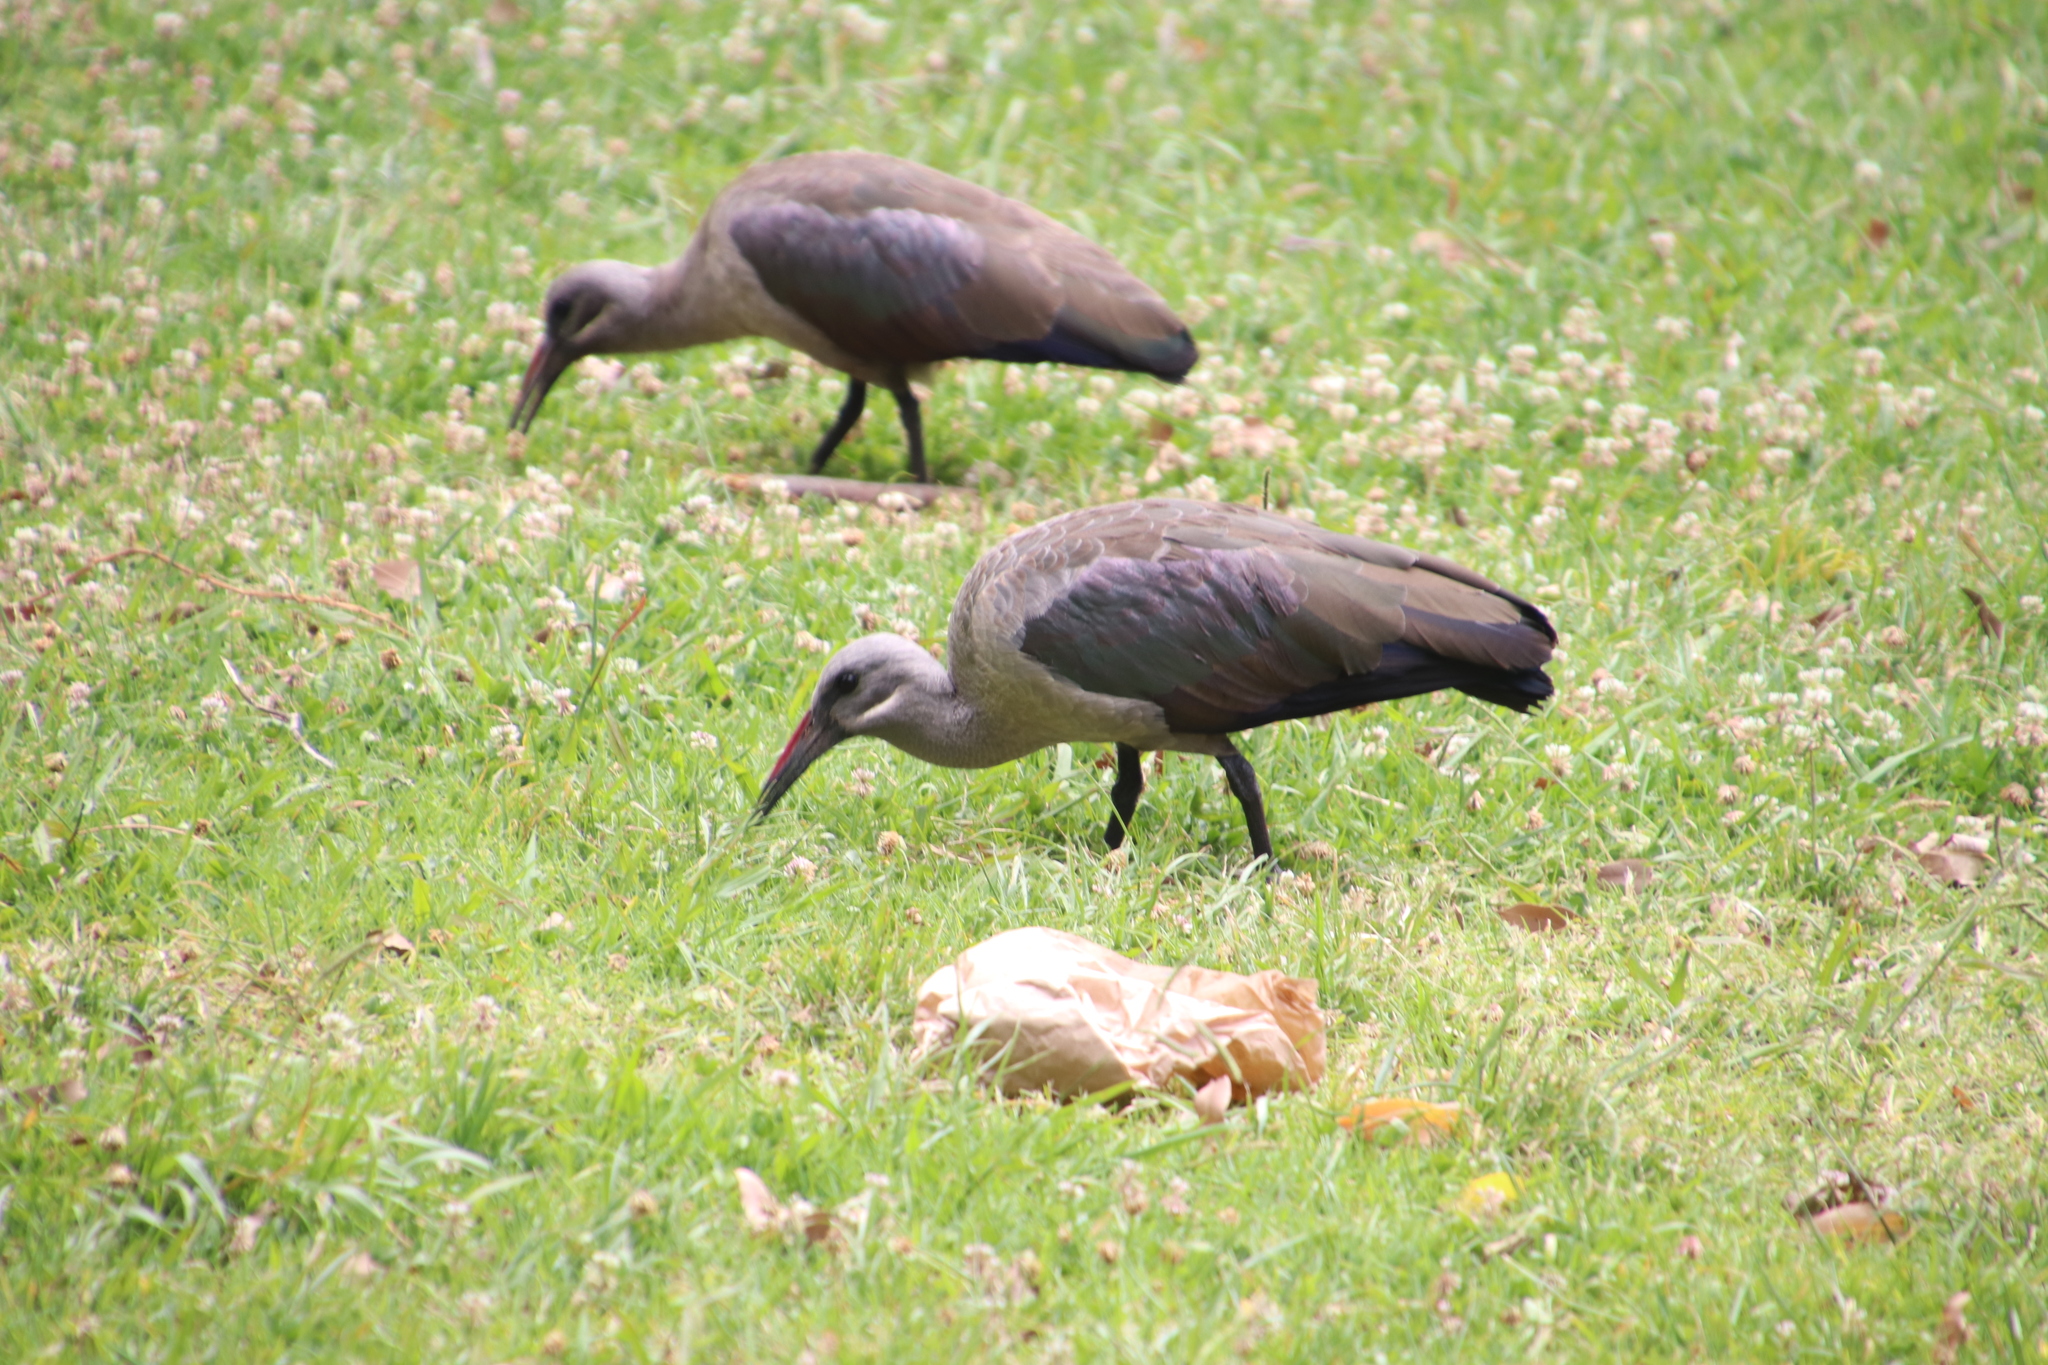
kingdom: Animalia
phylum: Chordata
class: Aves
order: Pelecaniformes
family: Threskiornithidae
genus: Bostrychia
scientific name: Bostrychia hagedash
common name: Hadada ibis
